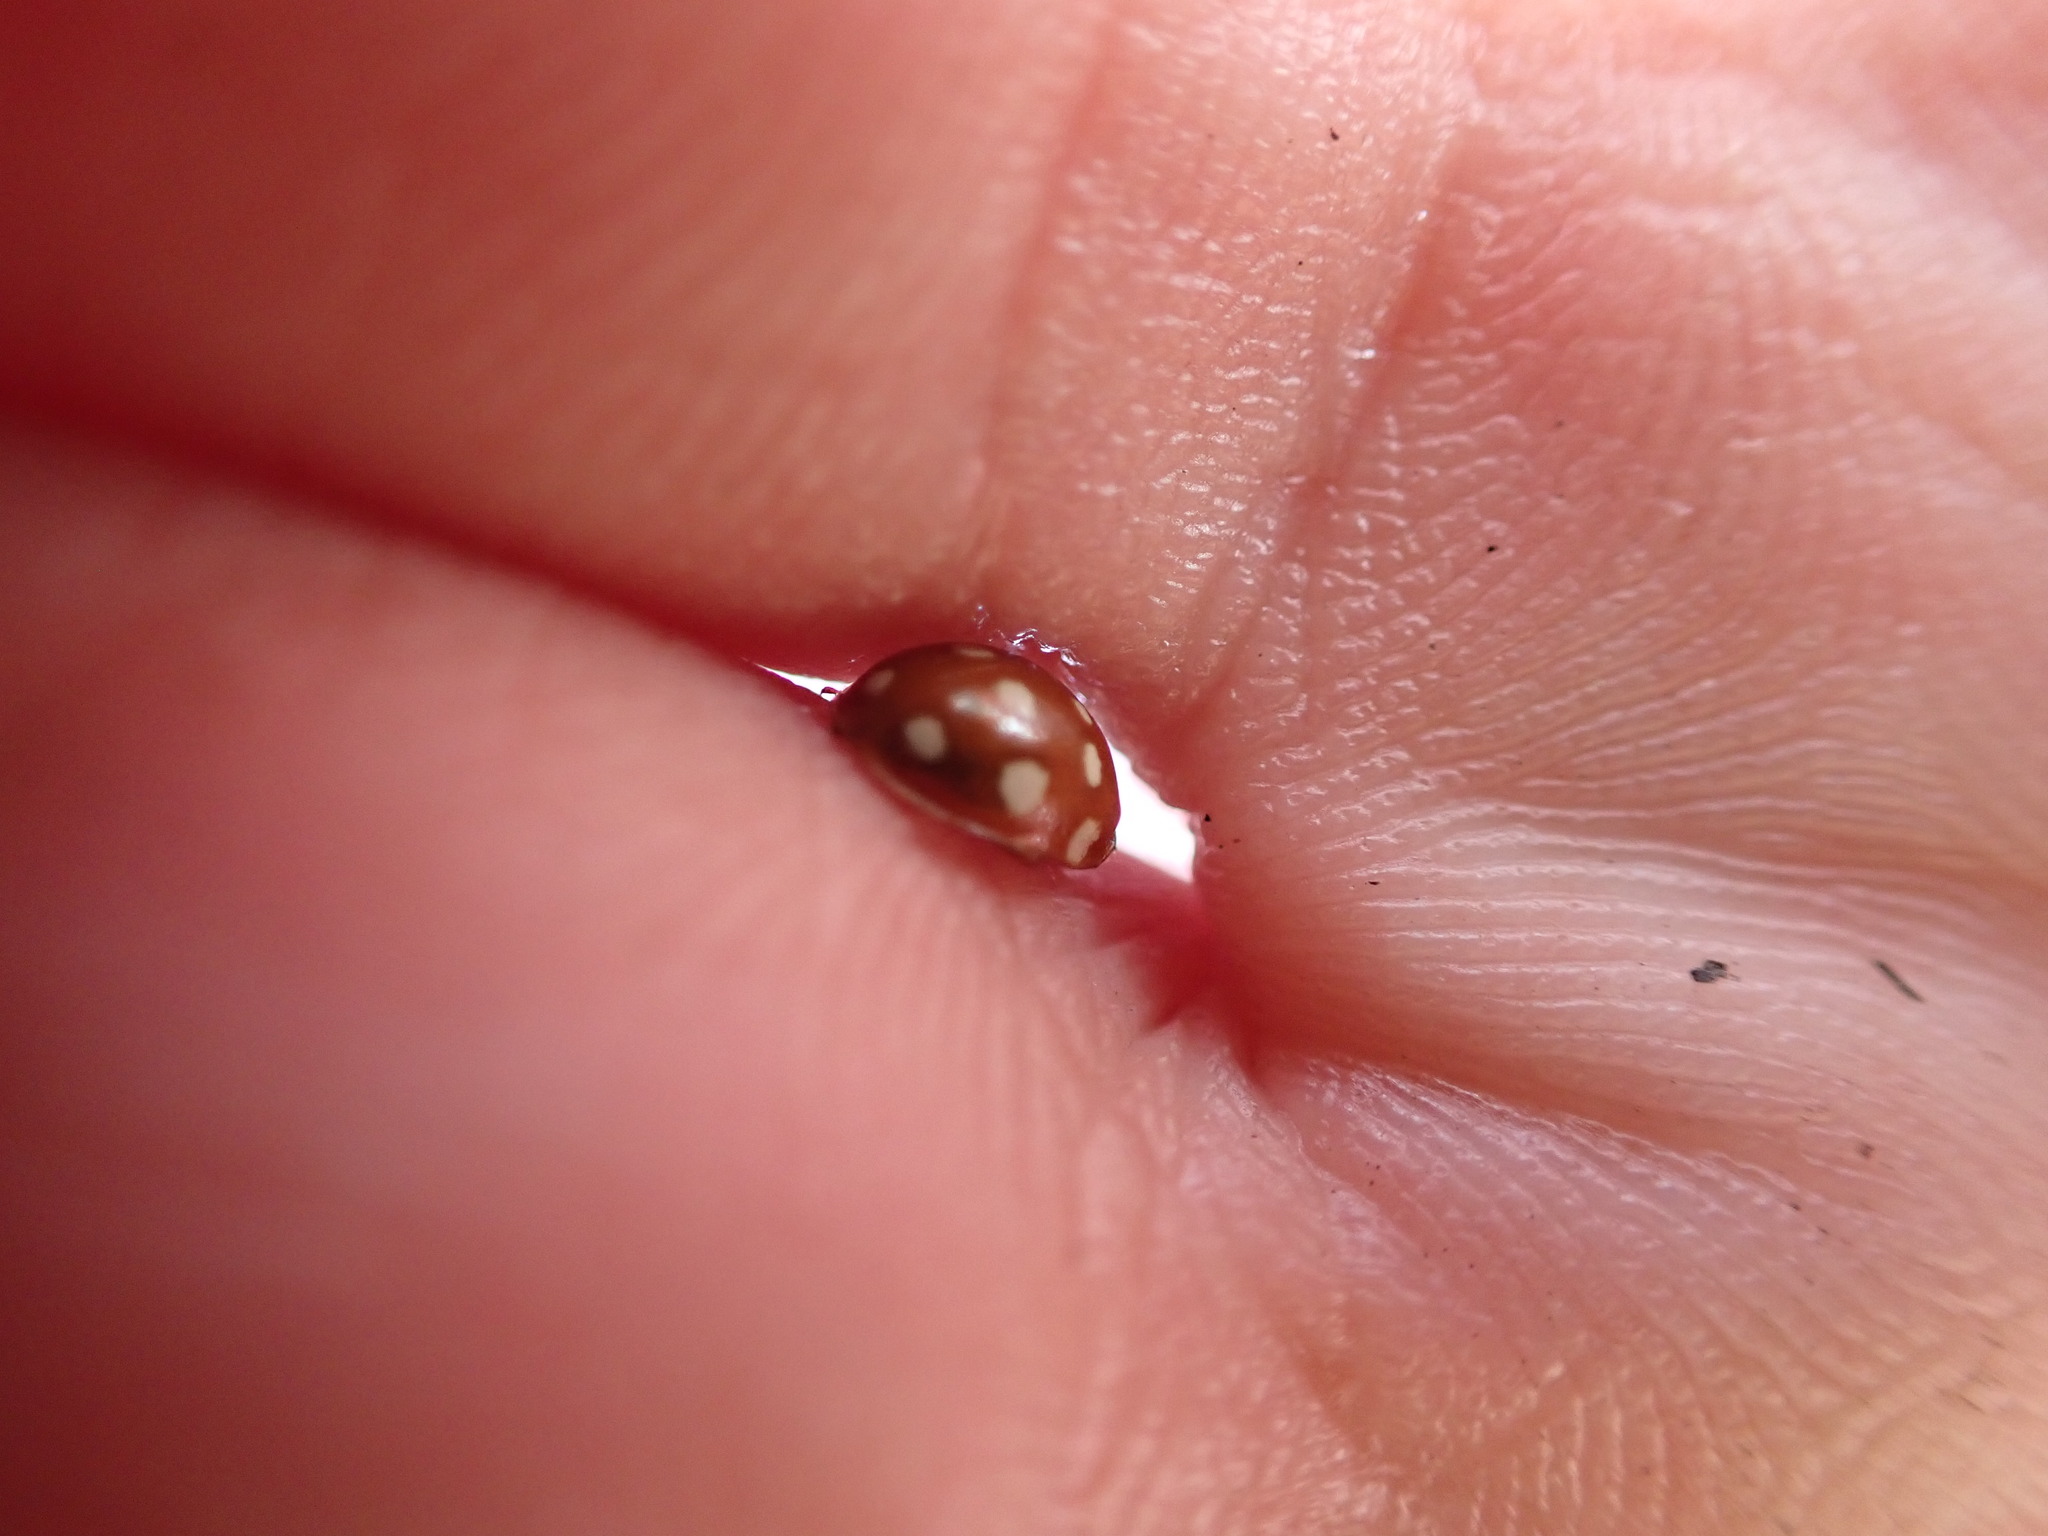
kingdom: Animalia
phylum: Arthropoda
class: Insecta
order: Coleoptera
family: Coccinellidae
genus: Calvia
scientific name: Calvia quatuordecimguttata
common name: Cream-spot ladybird
